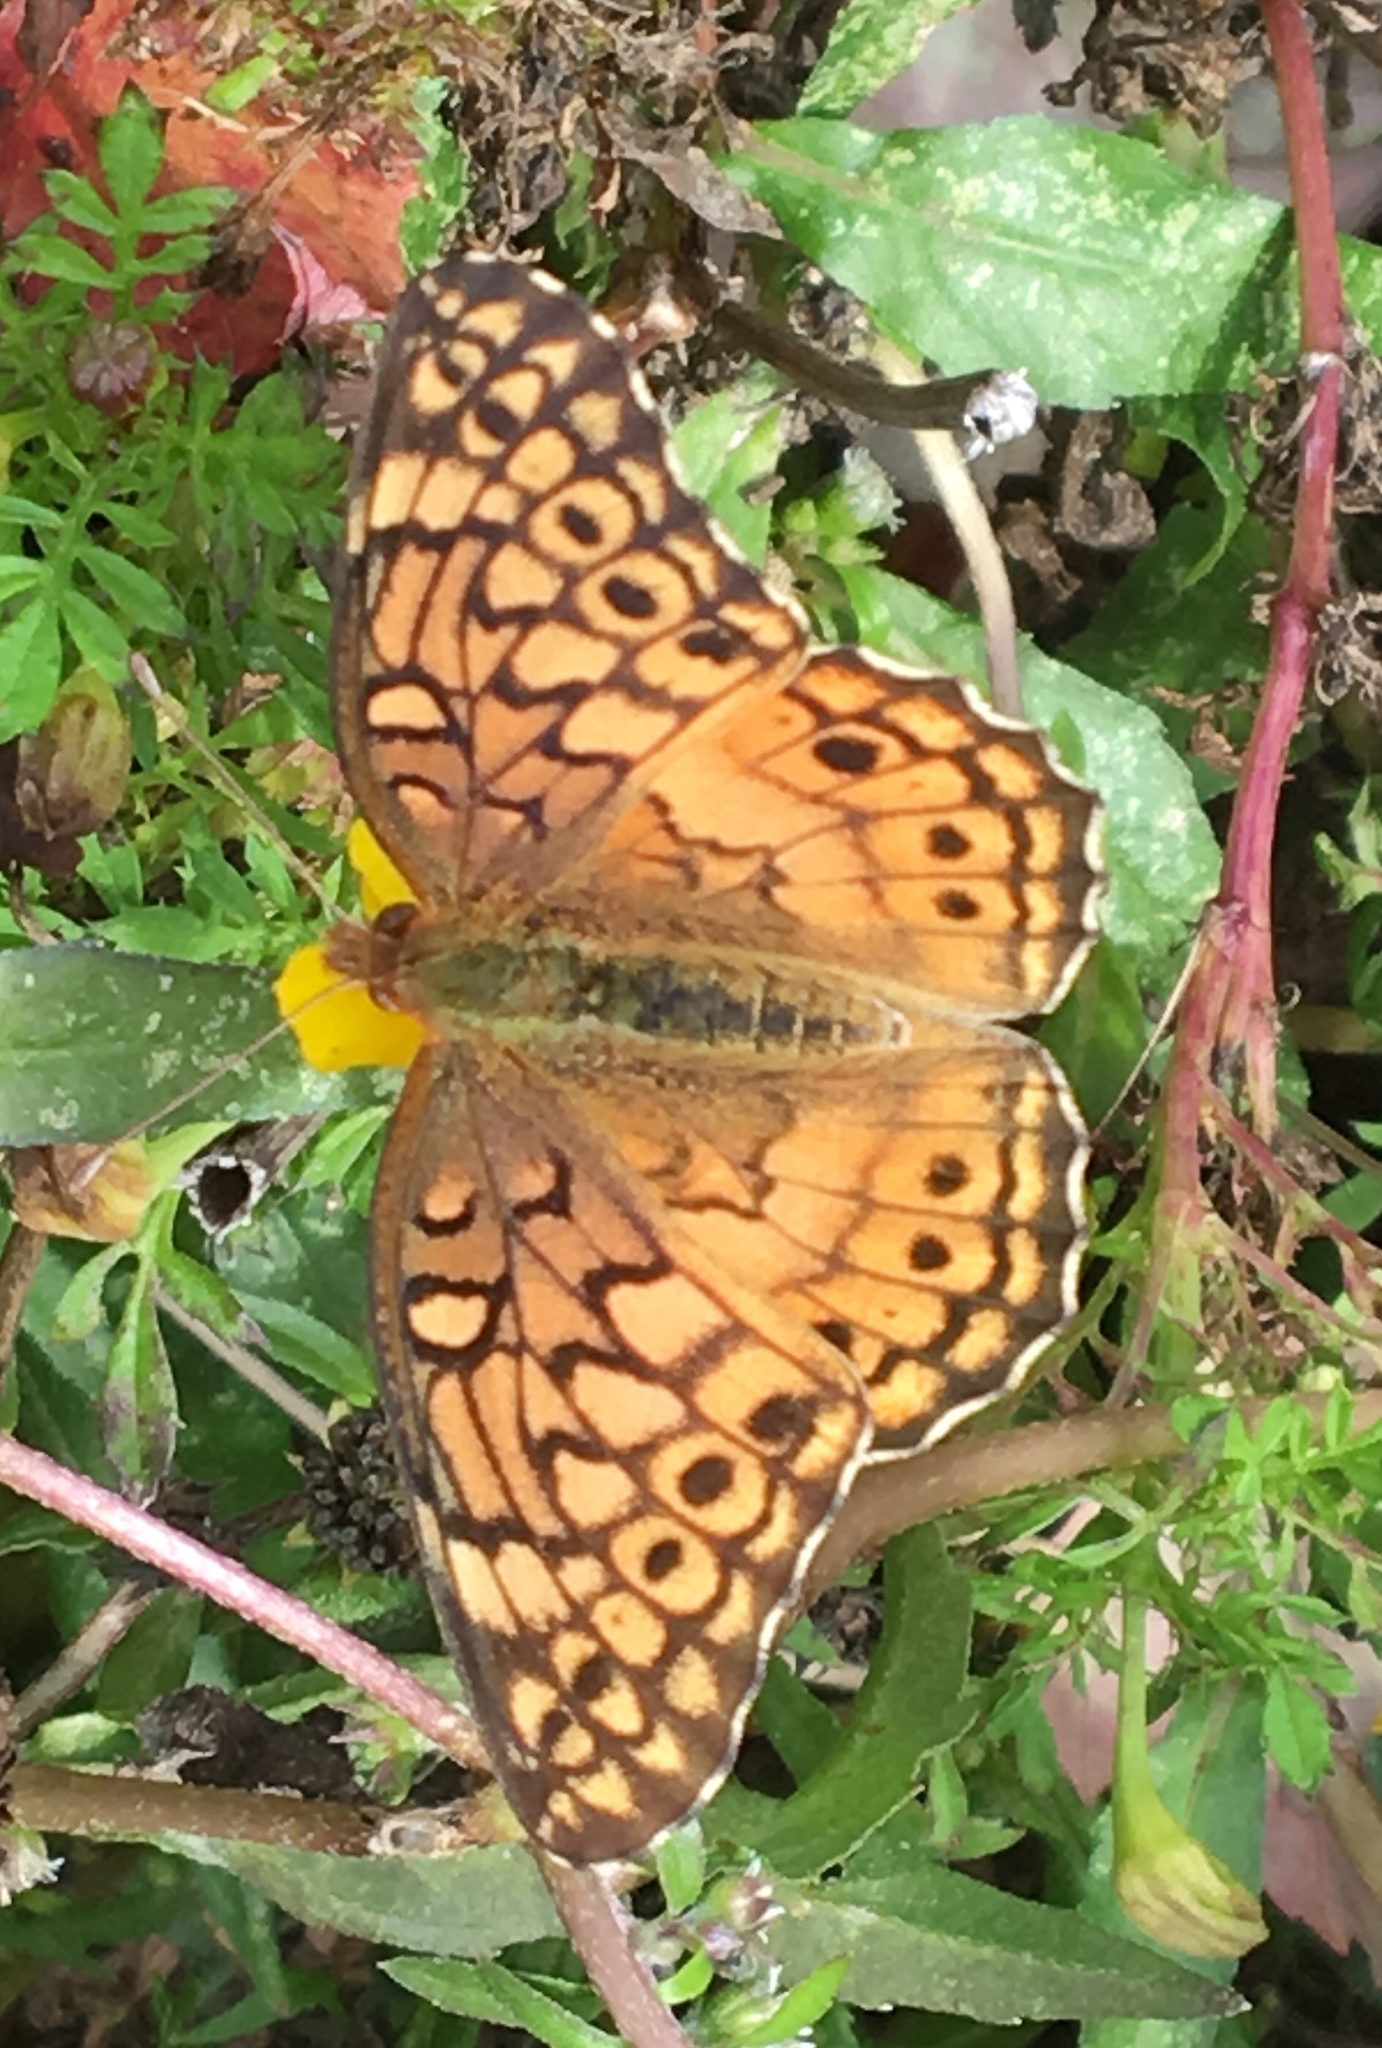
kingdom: Animalia
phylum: Arthropoda
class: Insecta
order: Lepidoptera
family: Nymphalidae
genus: Euptoieta
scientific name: Euptoieta claudia
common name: Variegated fritillary
